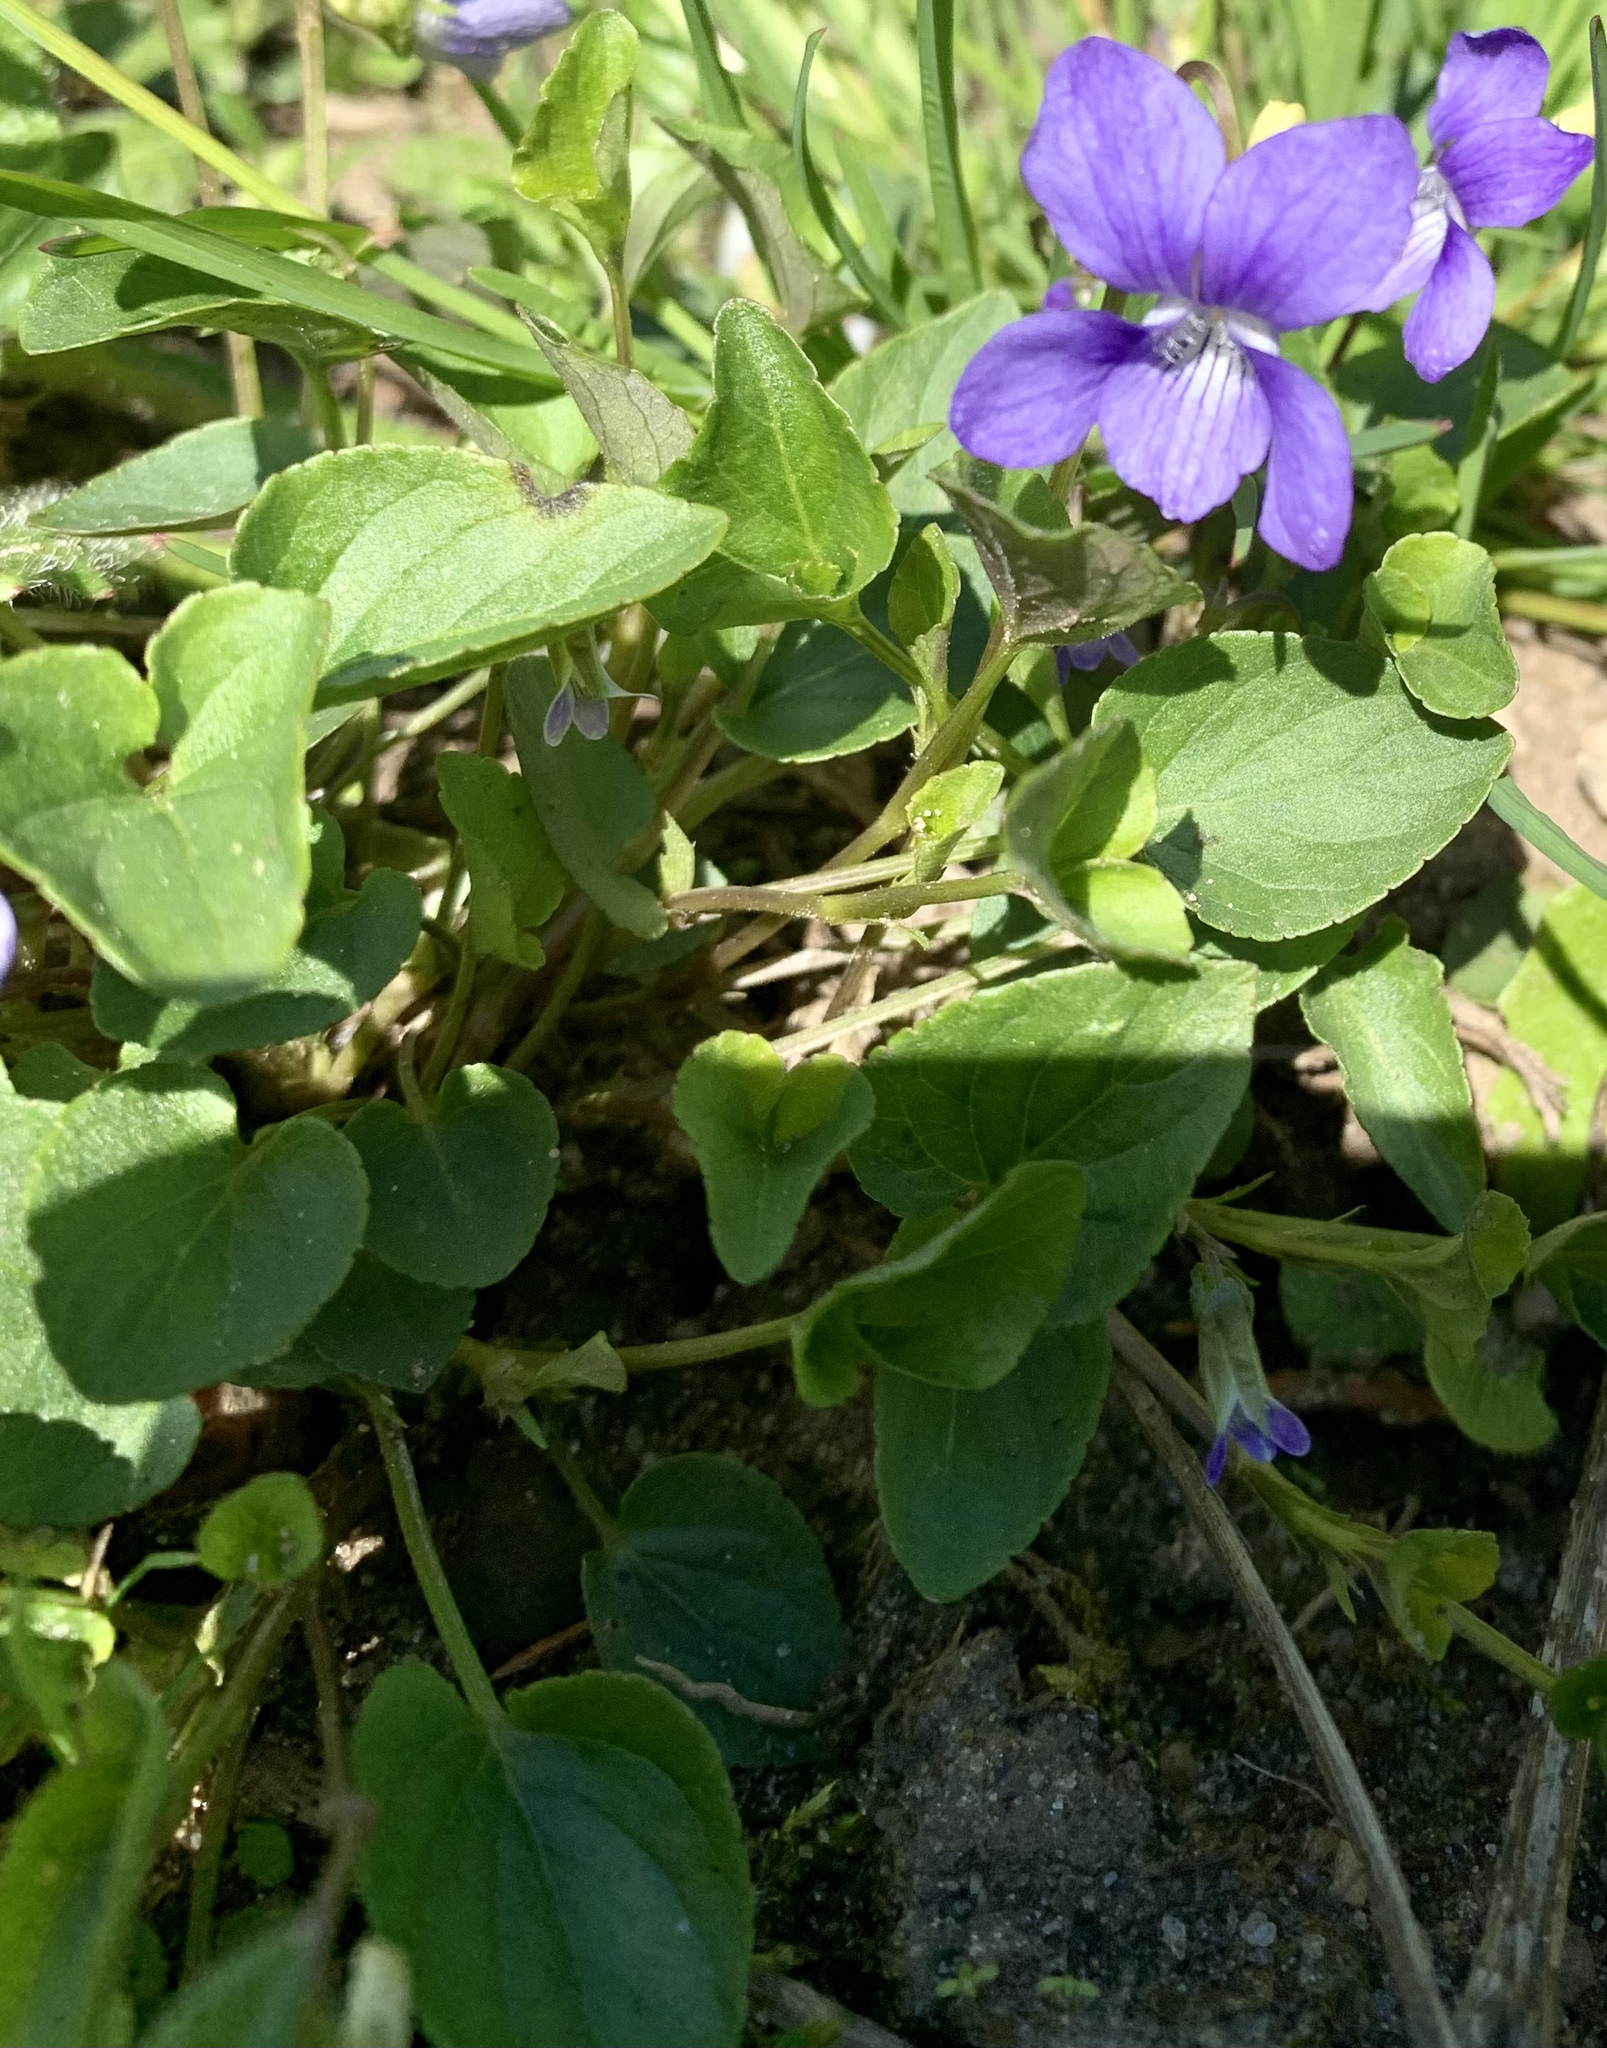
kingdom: Plantae
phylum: Tracheophyta
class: Magnoliopsida
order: Malpighiales
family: Violaceae
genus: Viola
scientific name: Viola canina
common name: Heath dog-violet
